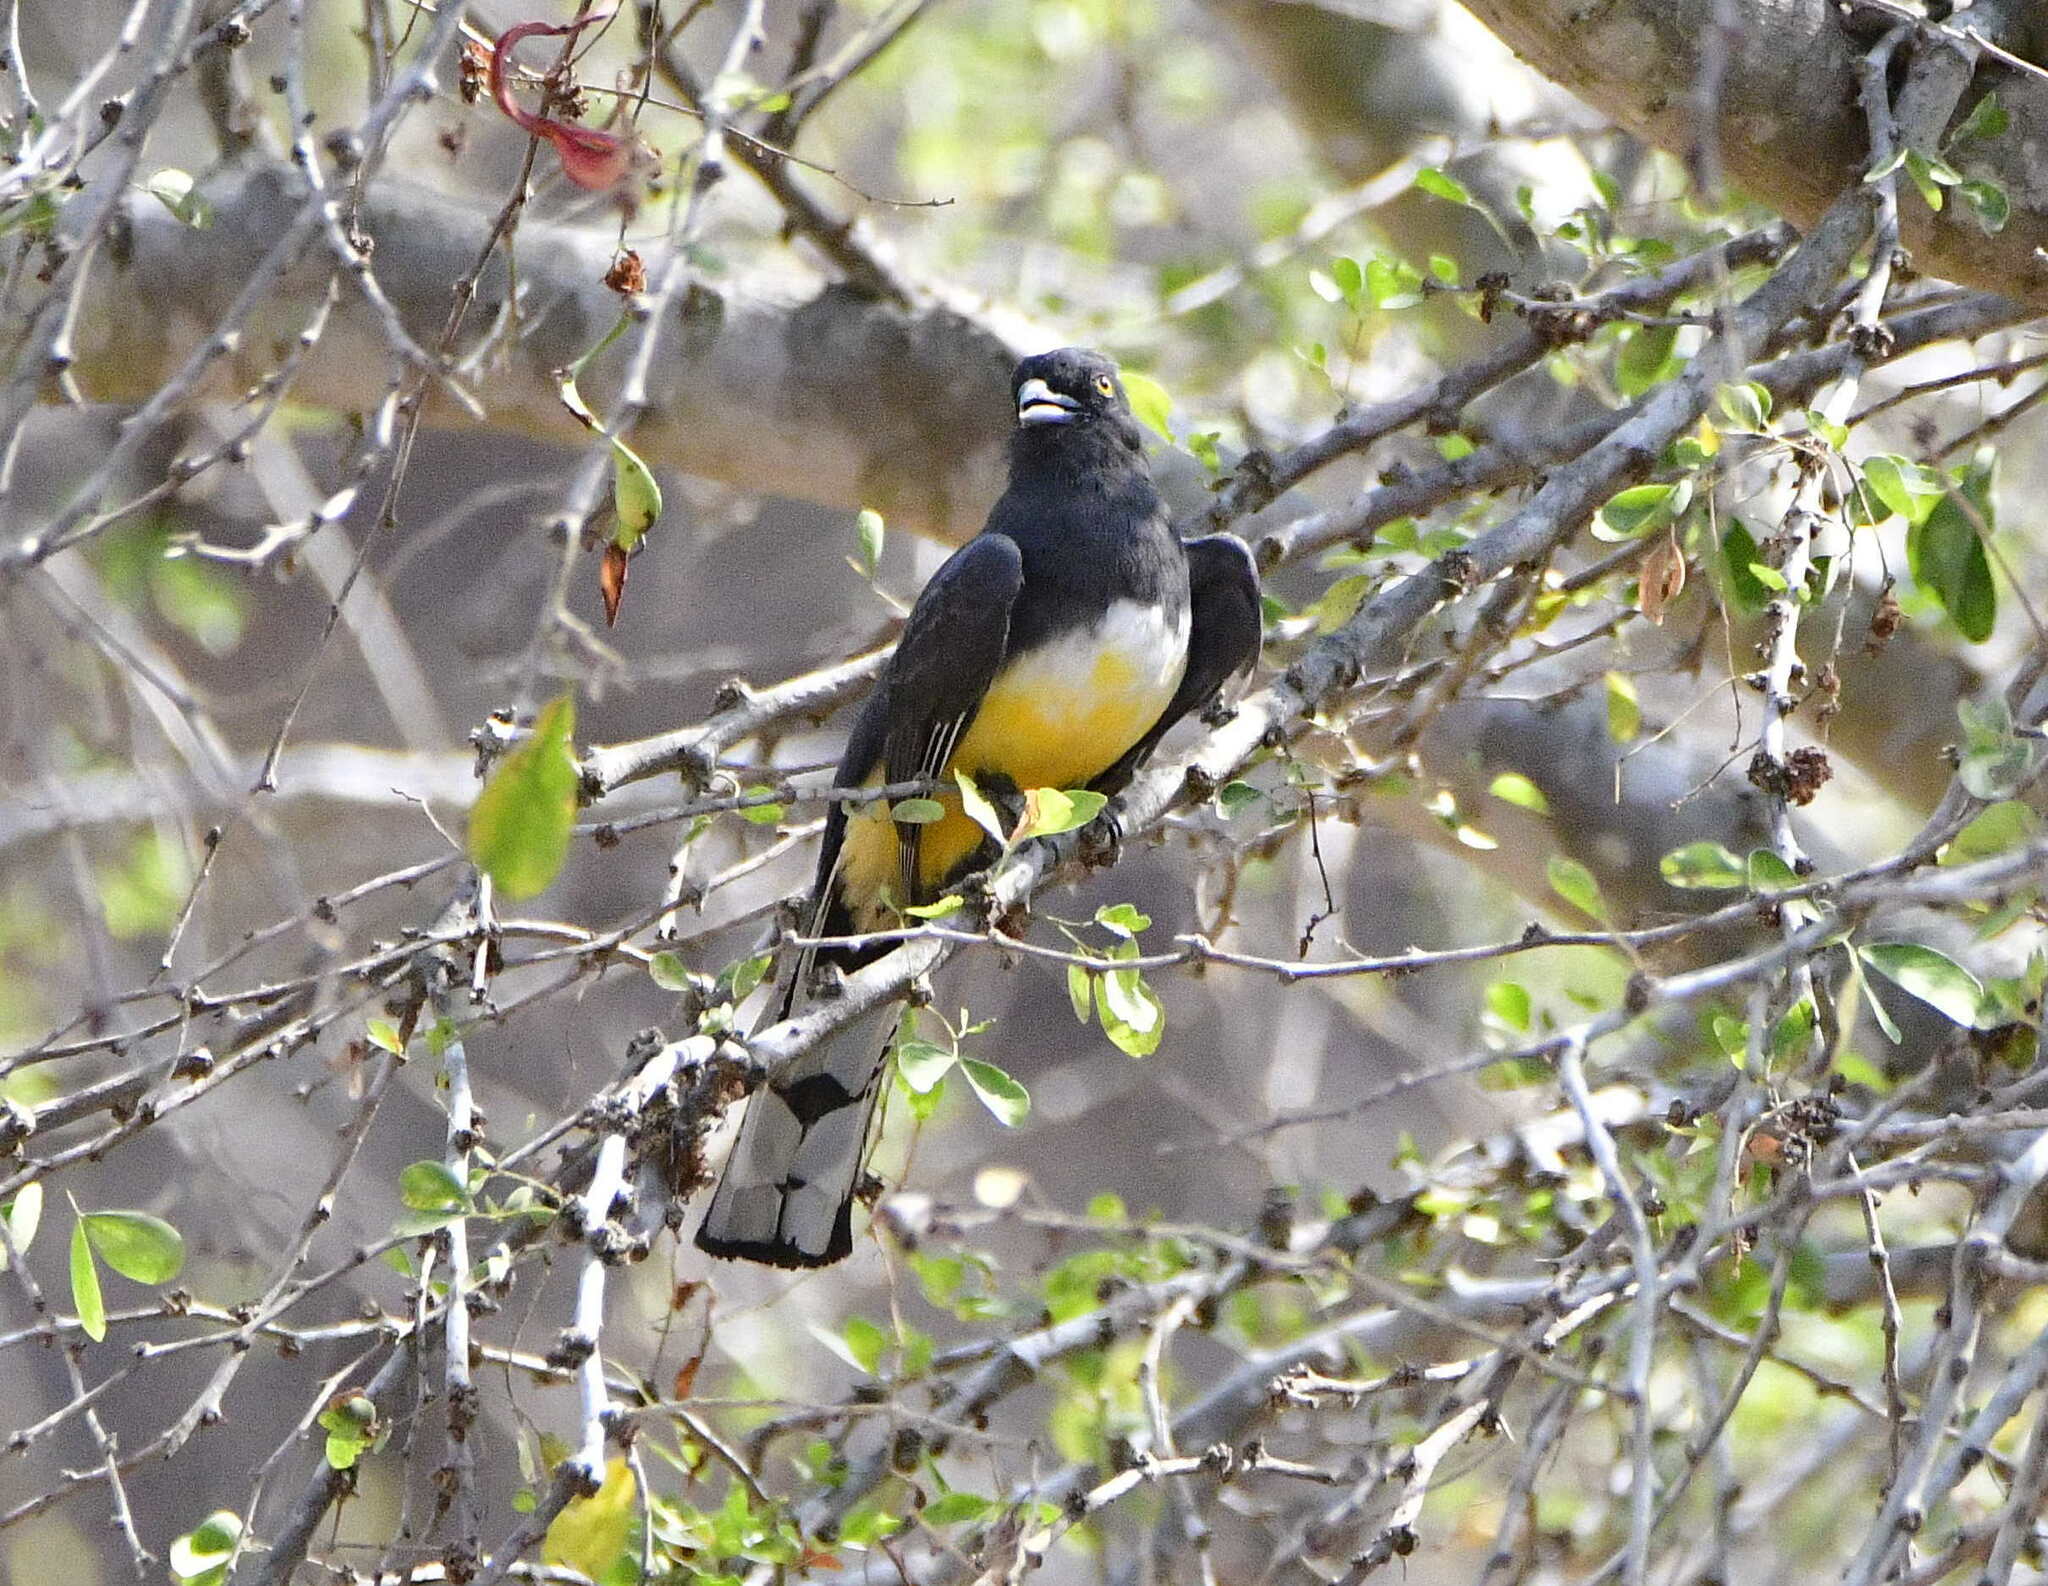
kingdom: Animalia
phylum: Chordata
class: Aves
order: Trogoniformes
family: Trogonidae
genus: Trogon
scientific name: Trogon citreolus
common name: Citreoline trogon
